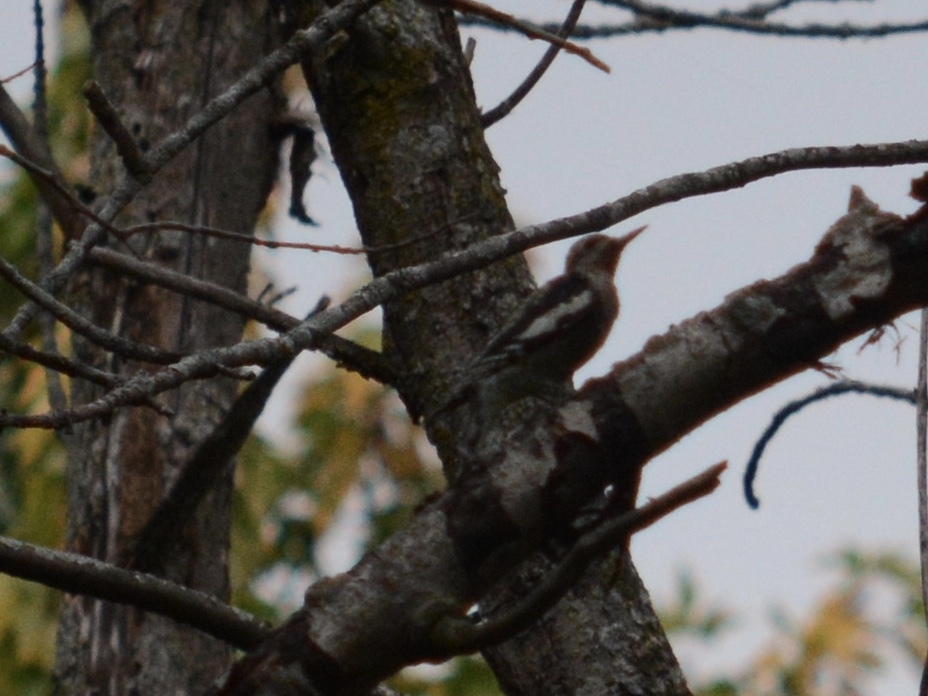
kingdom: Animalia
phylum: Chordata
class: Aves
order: Piciformes
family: Picidae
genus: Sphyrapicus
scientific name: Sphyrapicus varius
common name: Yellow-bellied sapsucker
